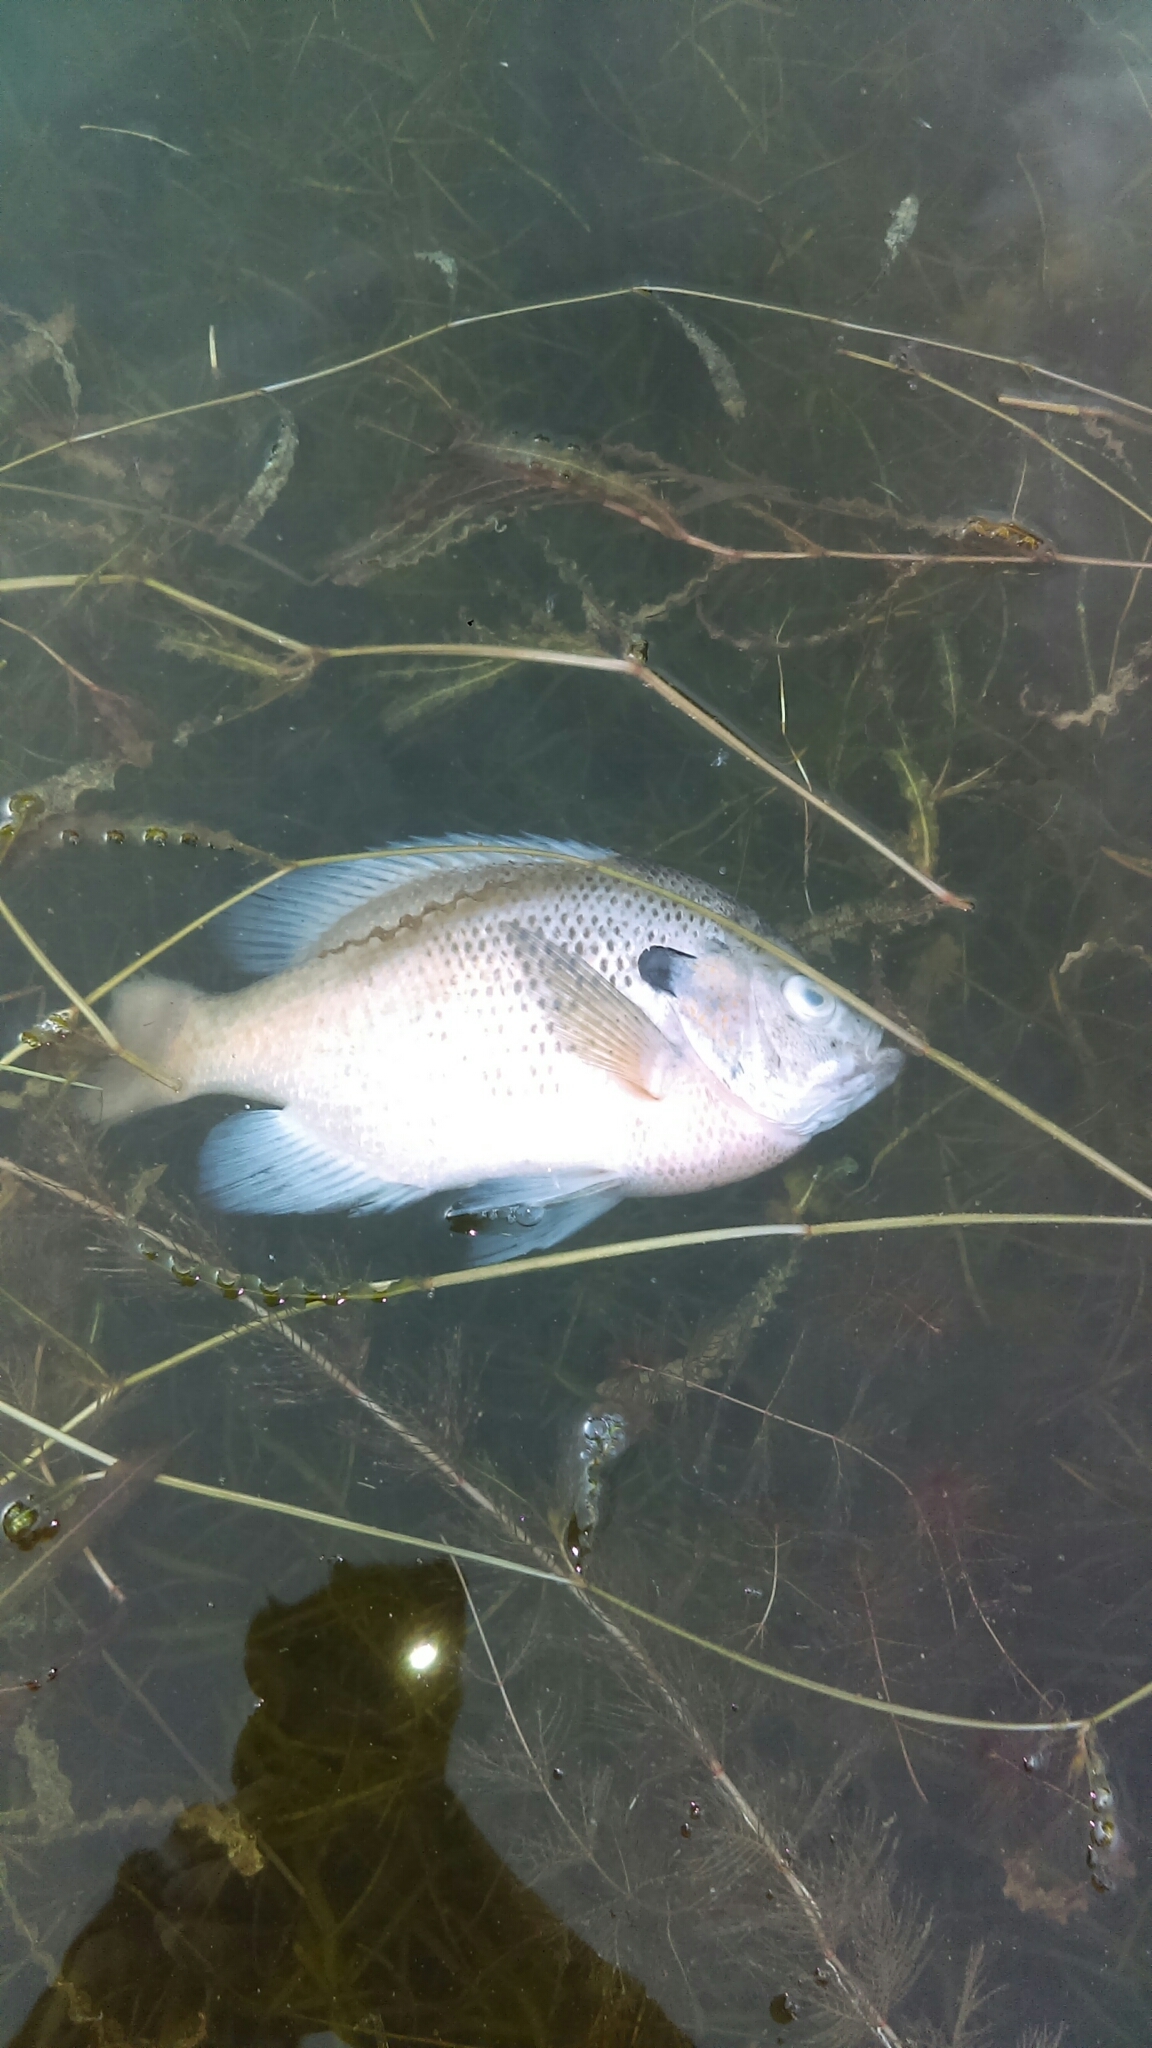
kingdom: Animalia
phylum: Chordata
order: Perciformes
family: Centrarchidae
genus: Lepomis
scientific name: Lepomis macrochirus
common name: Bluegill
